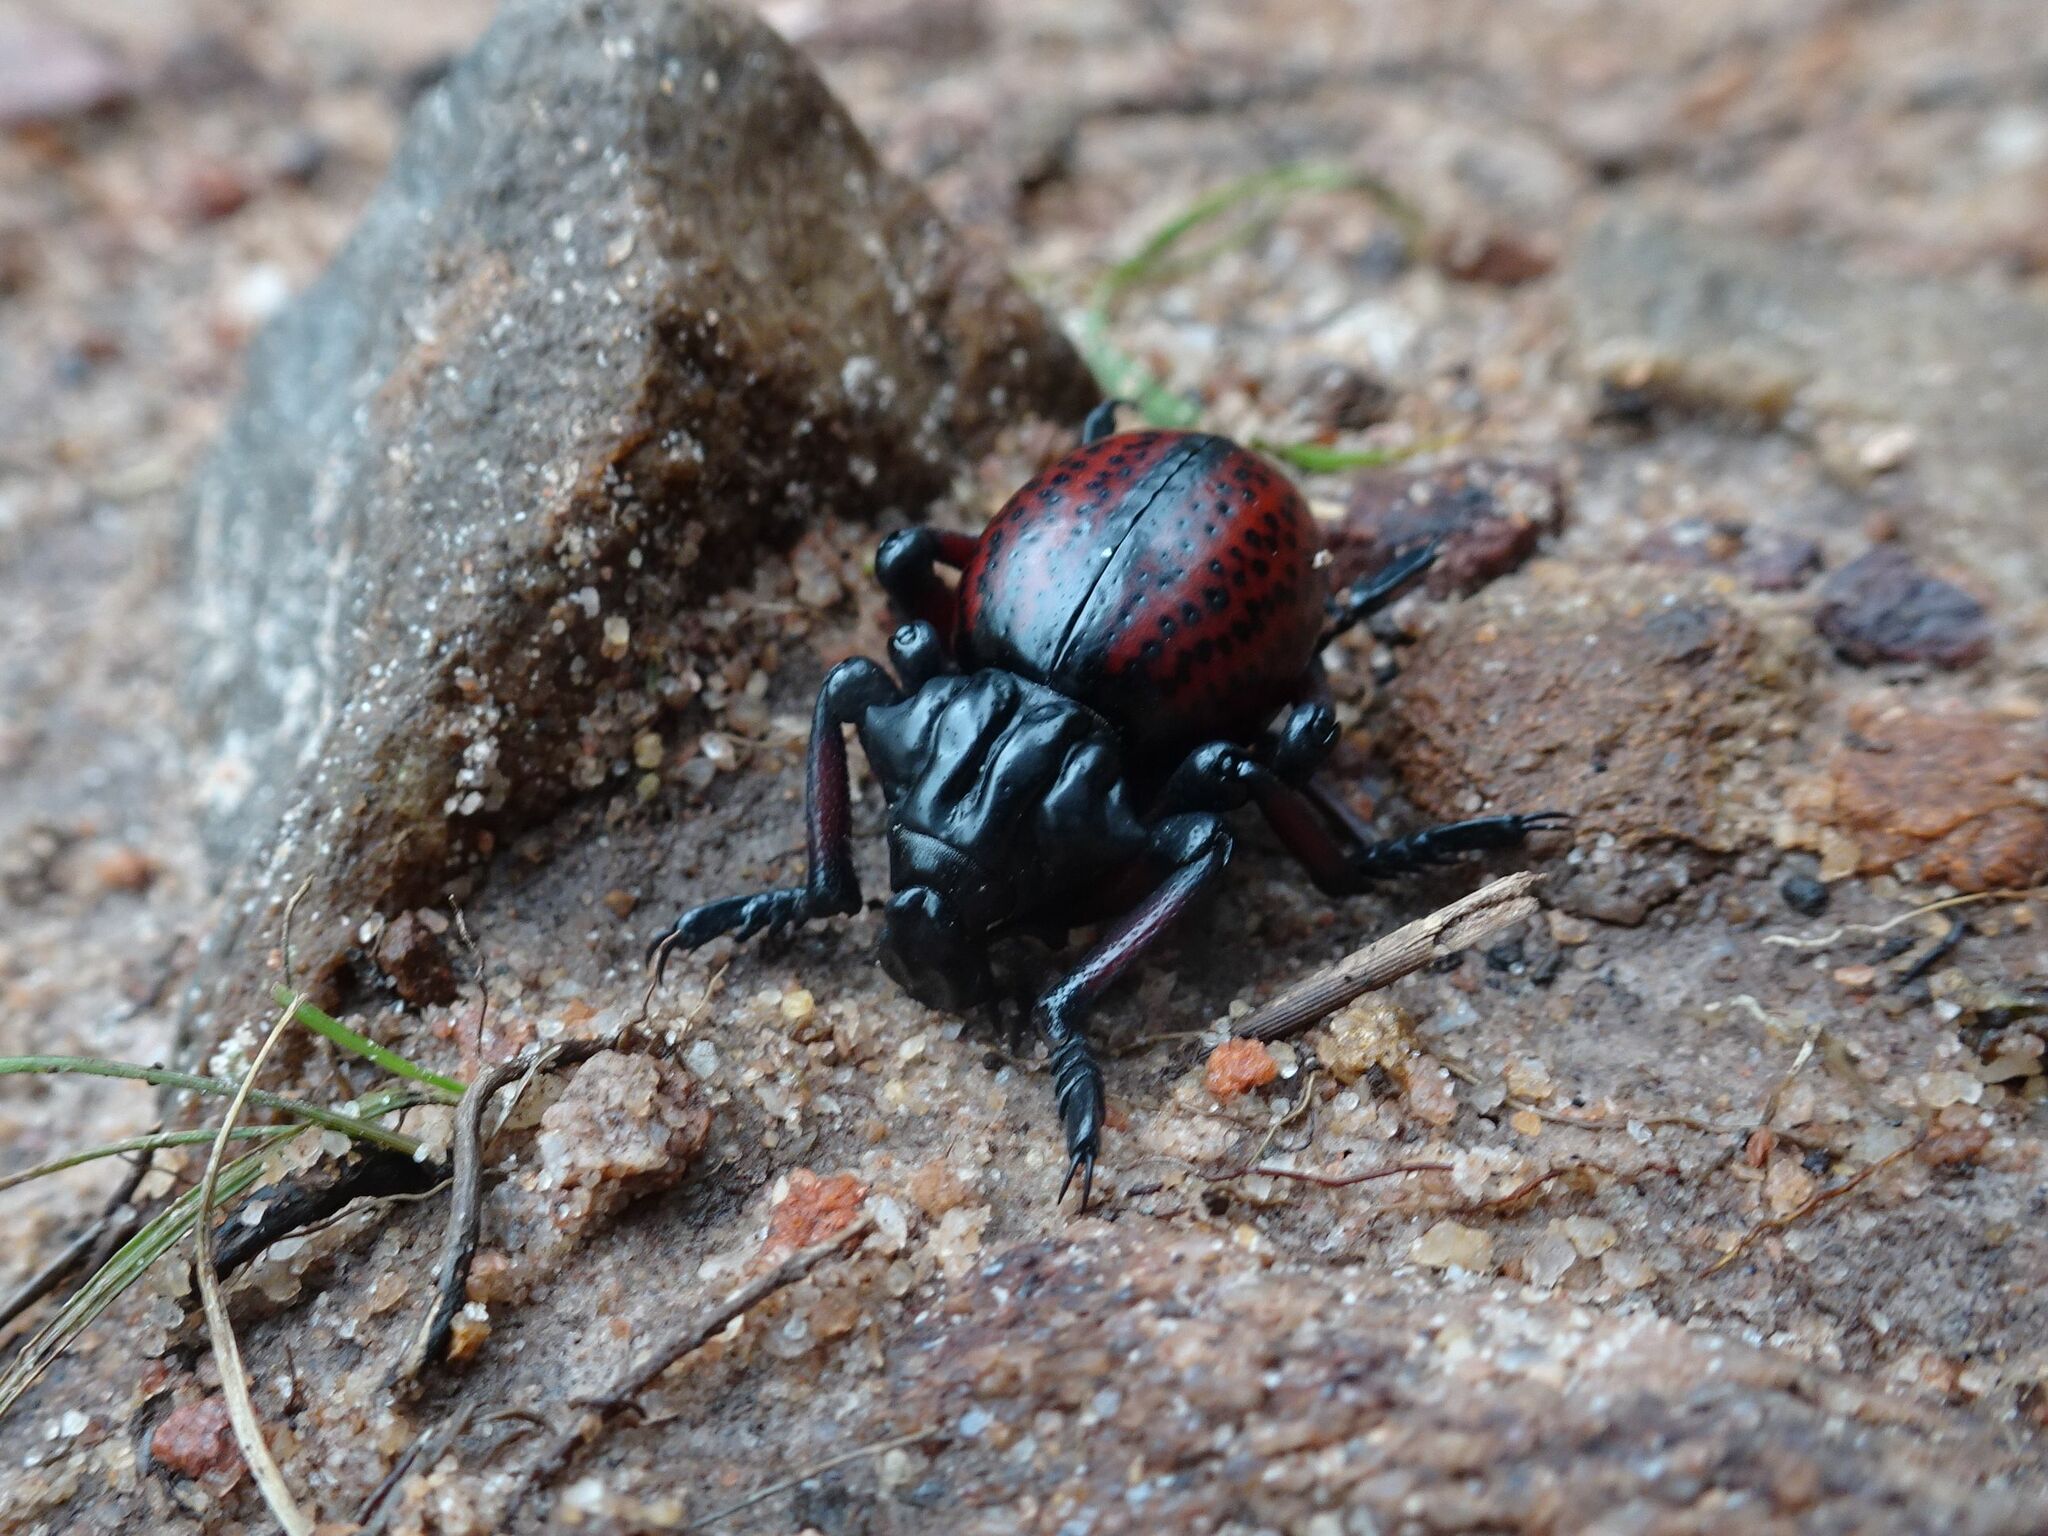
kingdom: Animalia
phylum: Arthropoda
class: Insecta
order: Coleoptera
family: Brachyceridae
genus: Brachycerus
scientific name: Brachycerus farctus
